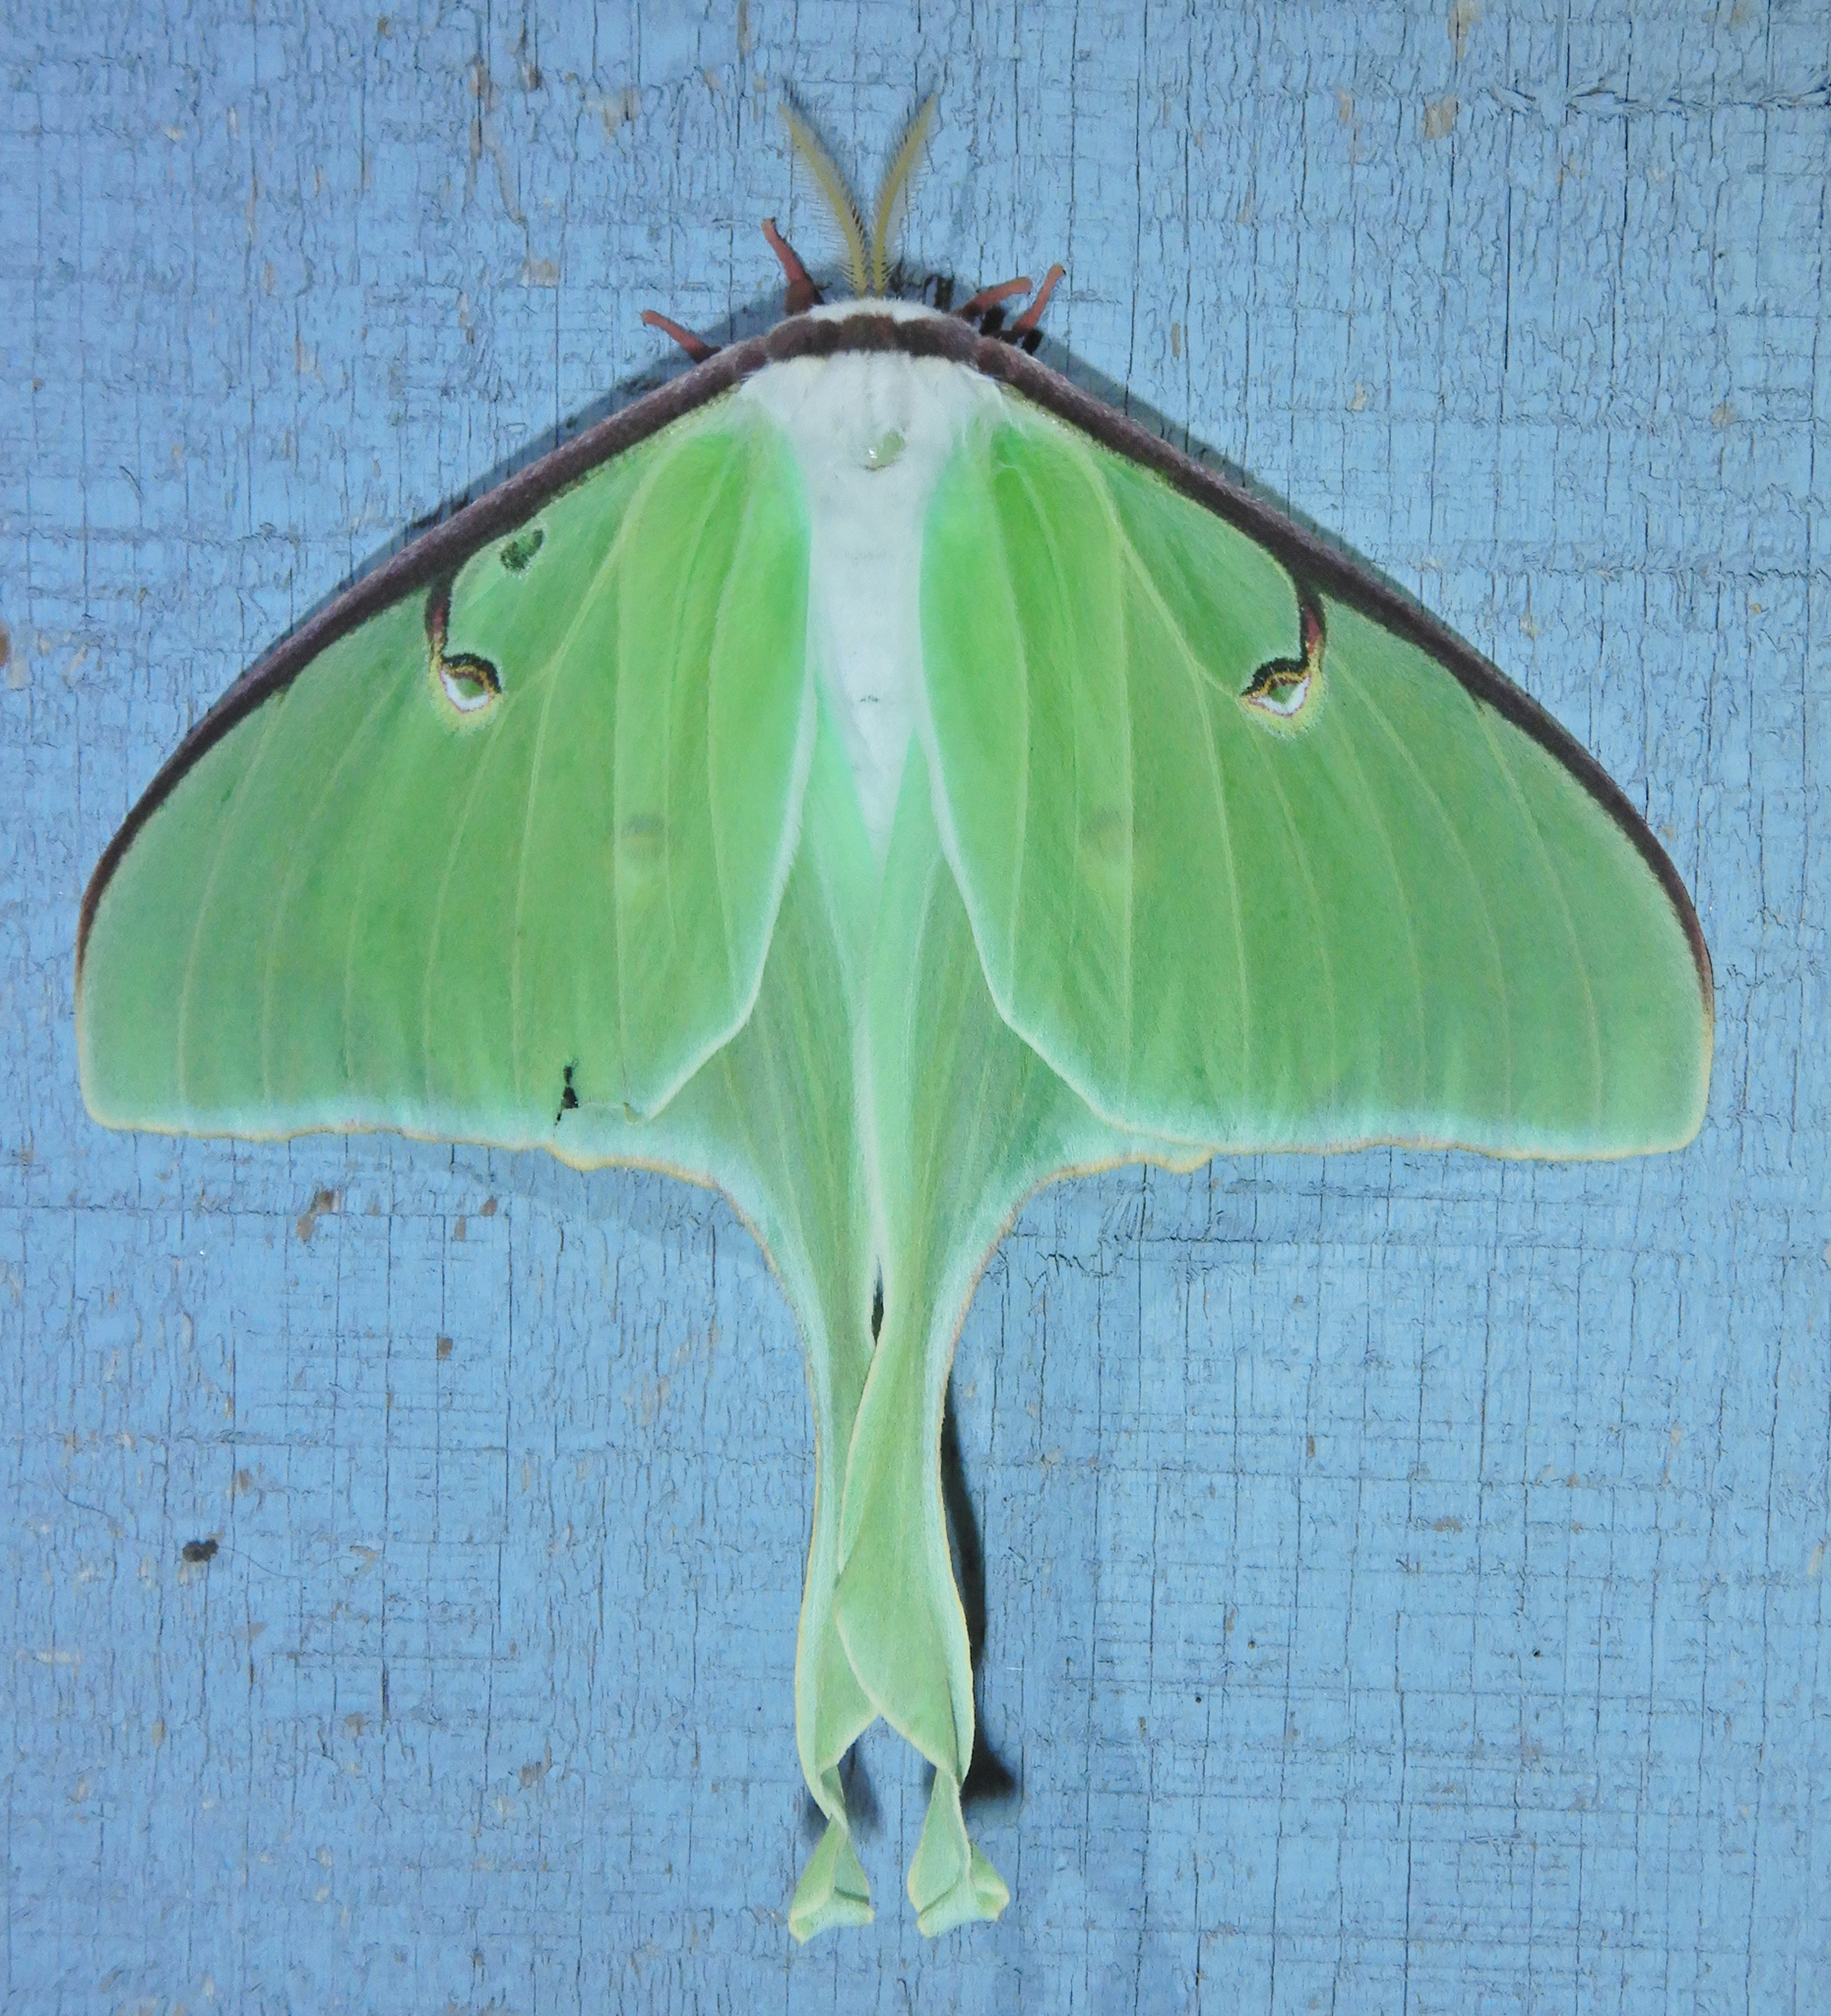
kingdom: Animalia
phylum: Arthropoda
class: Insecta
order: Lepidoptera
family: Saturniidae
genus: Actias
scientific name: Actias luna
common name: Luna moth
